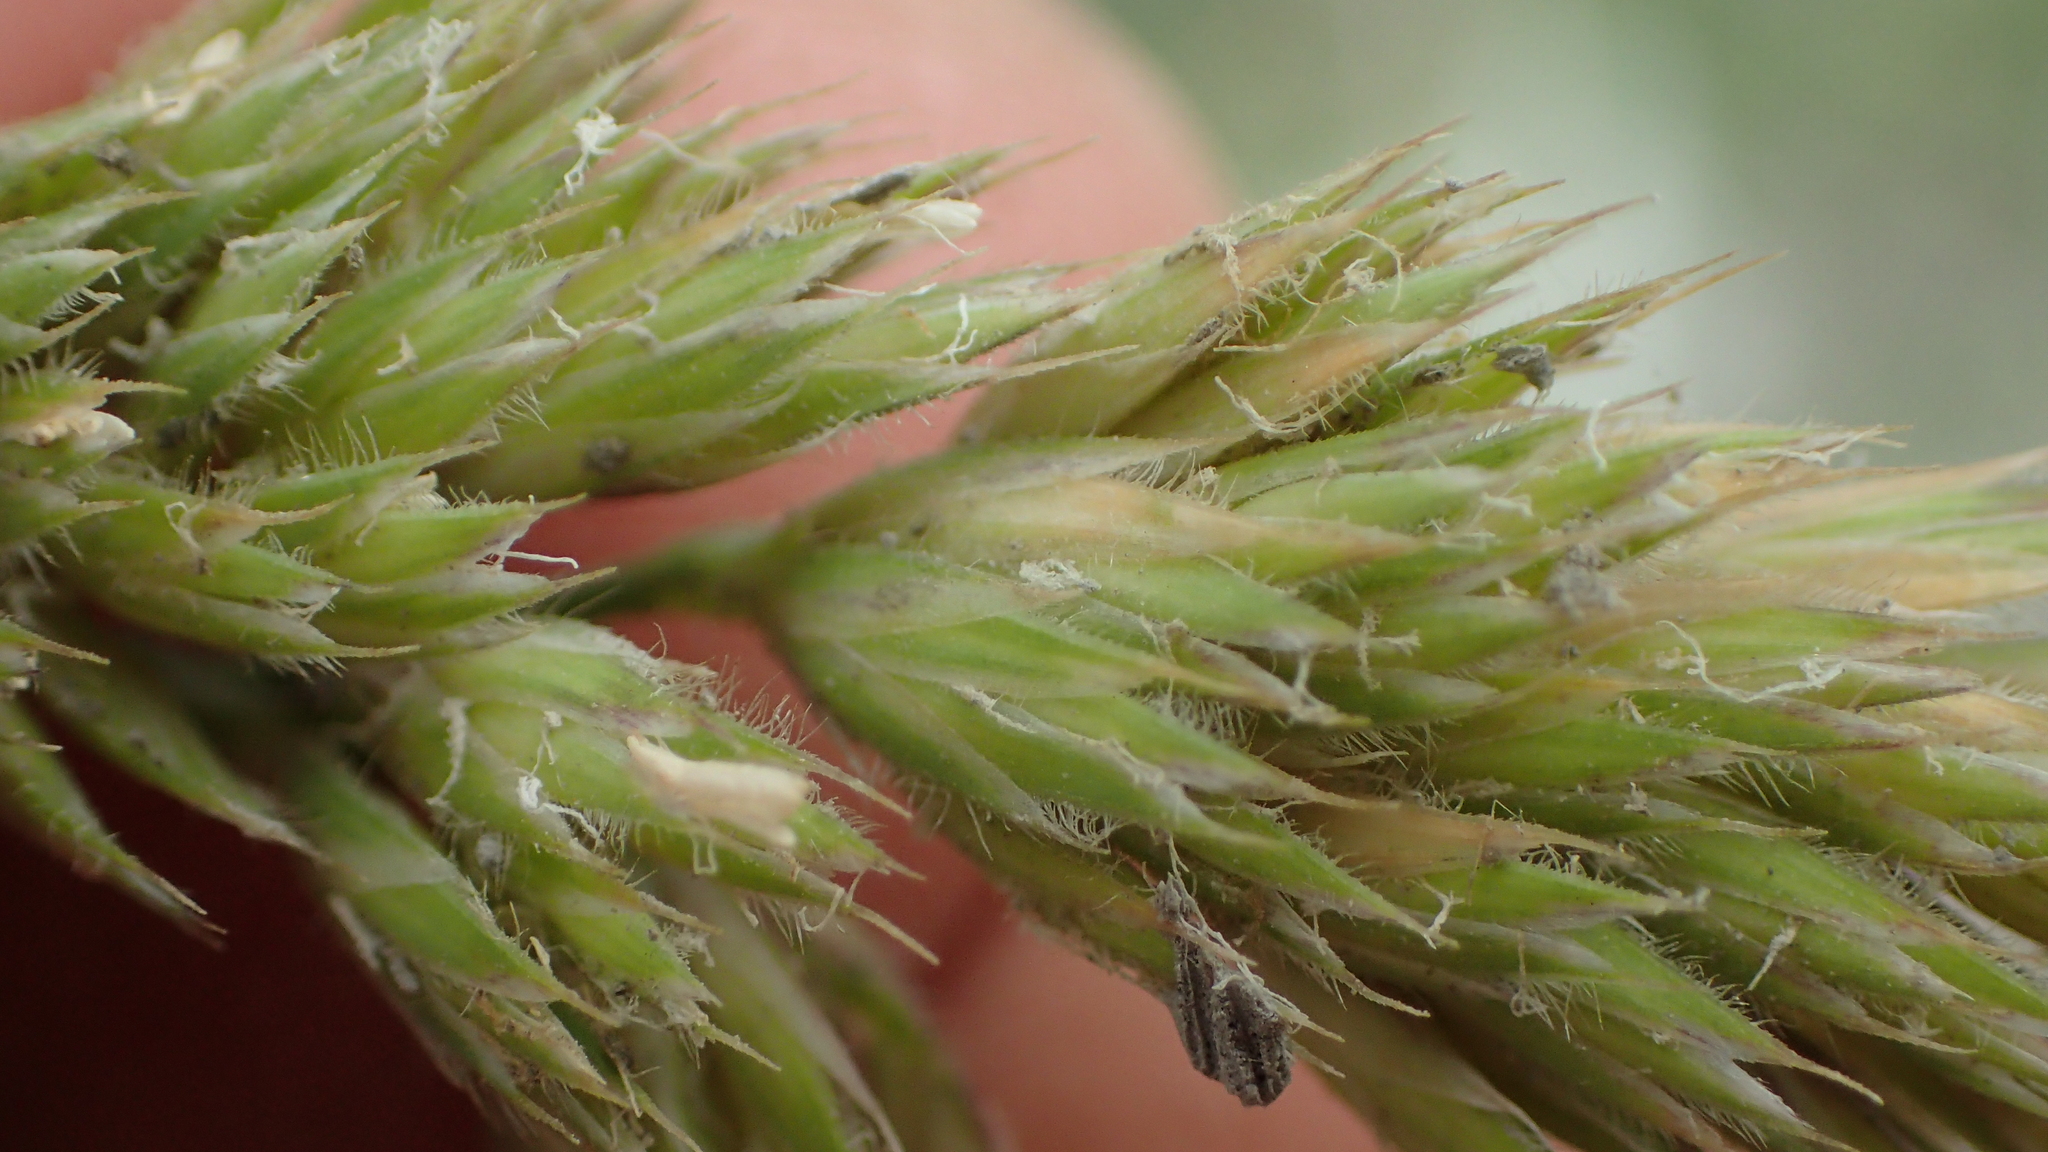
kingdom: Plantae
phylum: Tracheophyta
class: Liliopsida
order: Poales
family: Poaceae
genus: Dactylis
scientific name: Dactylis glomerata
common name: Orchardgrass
